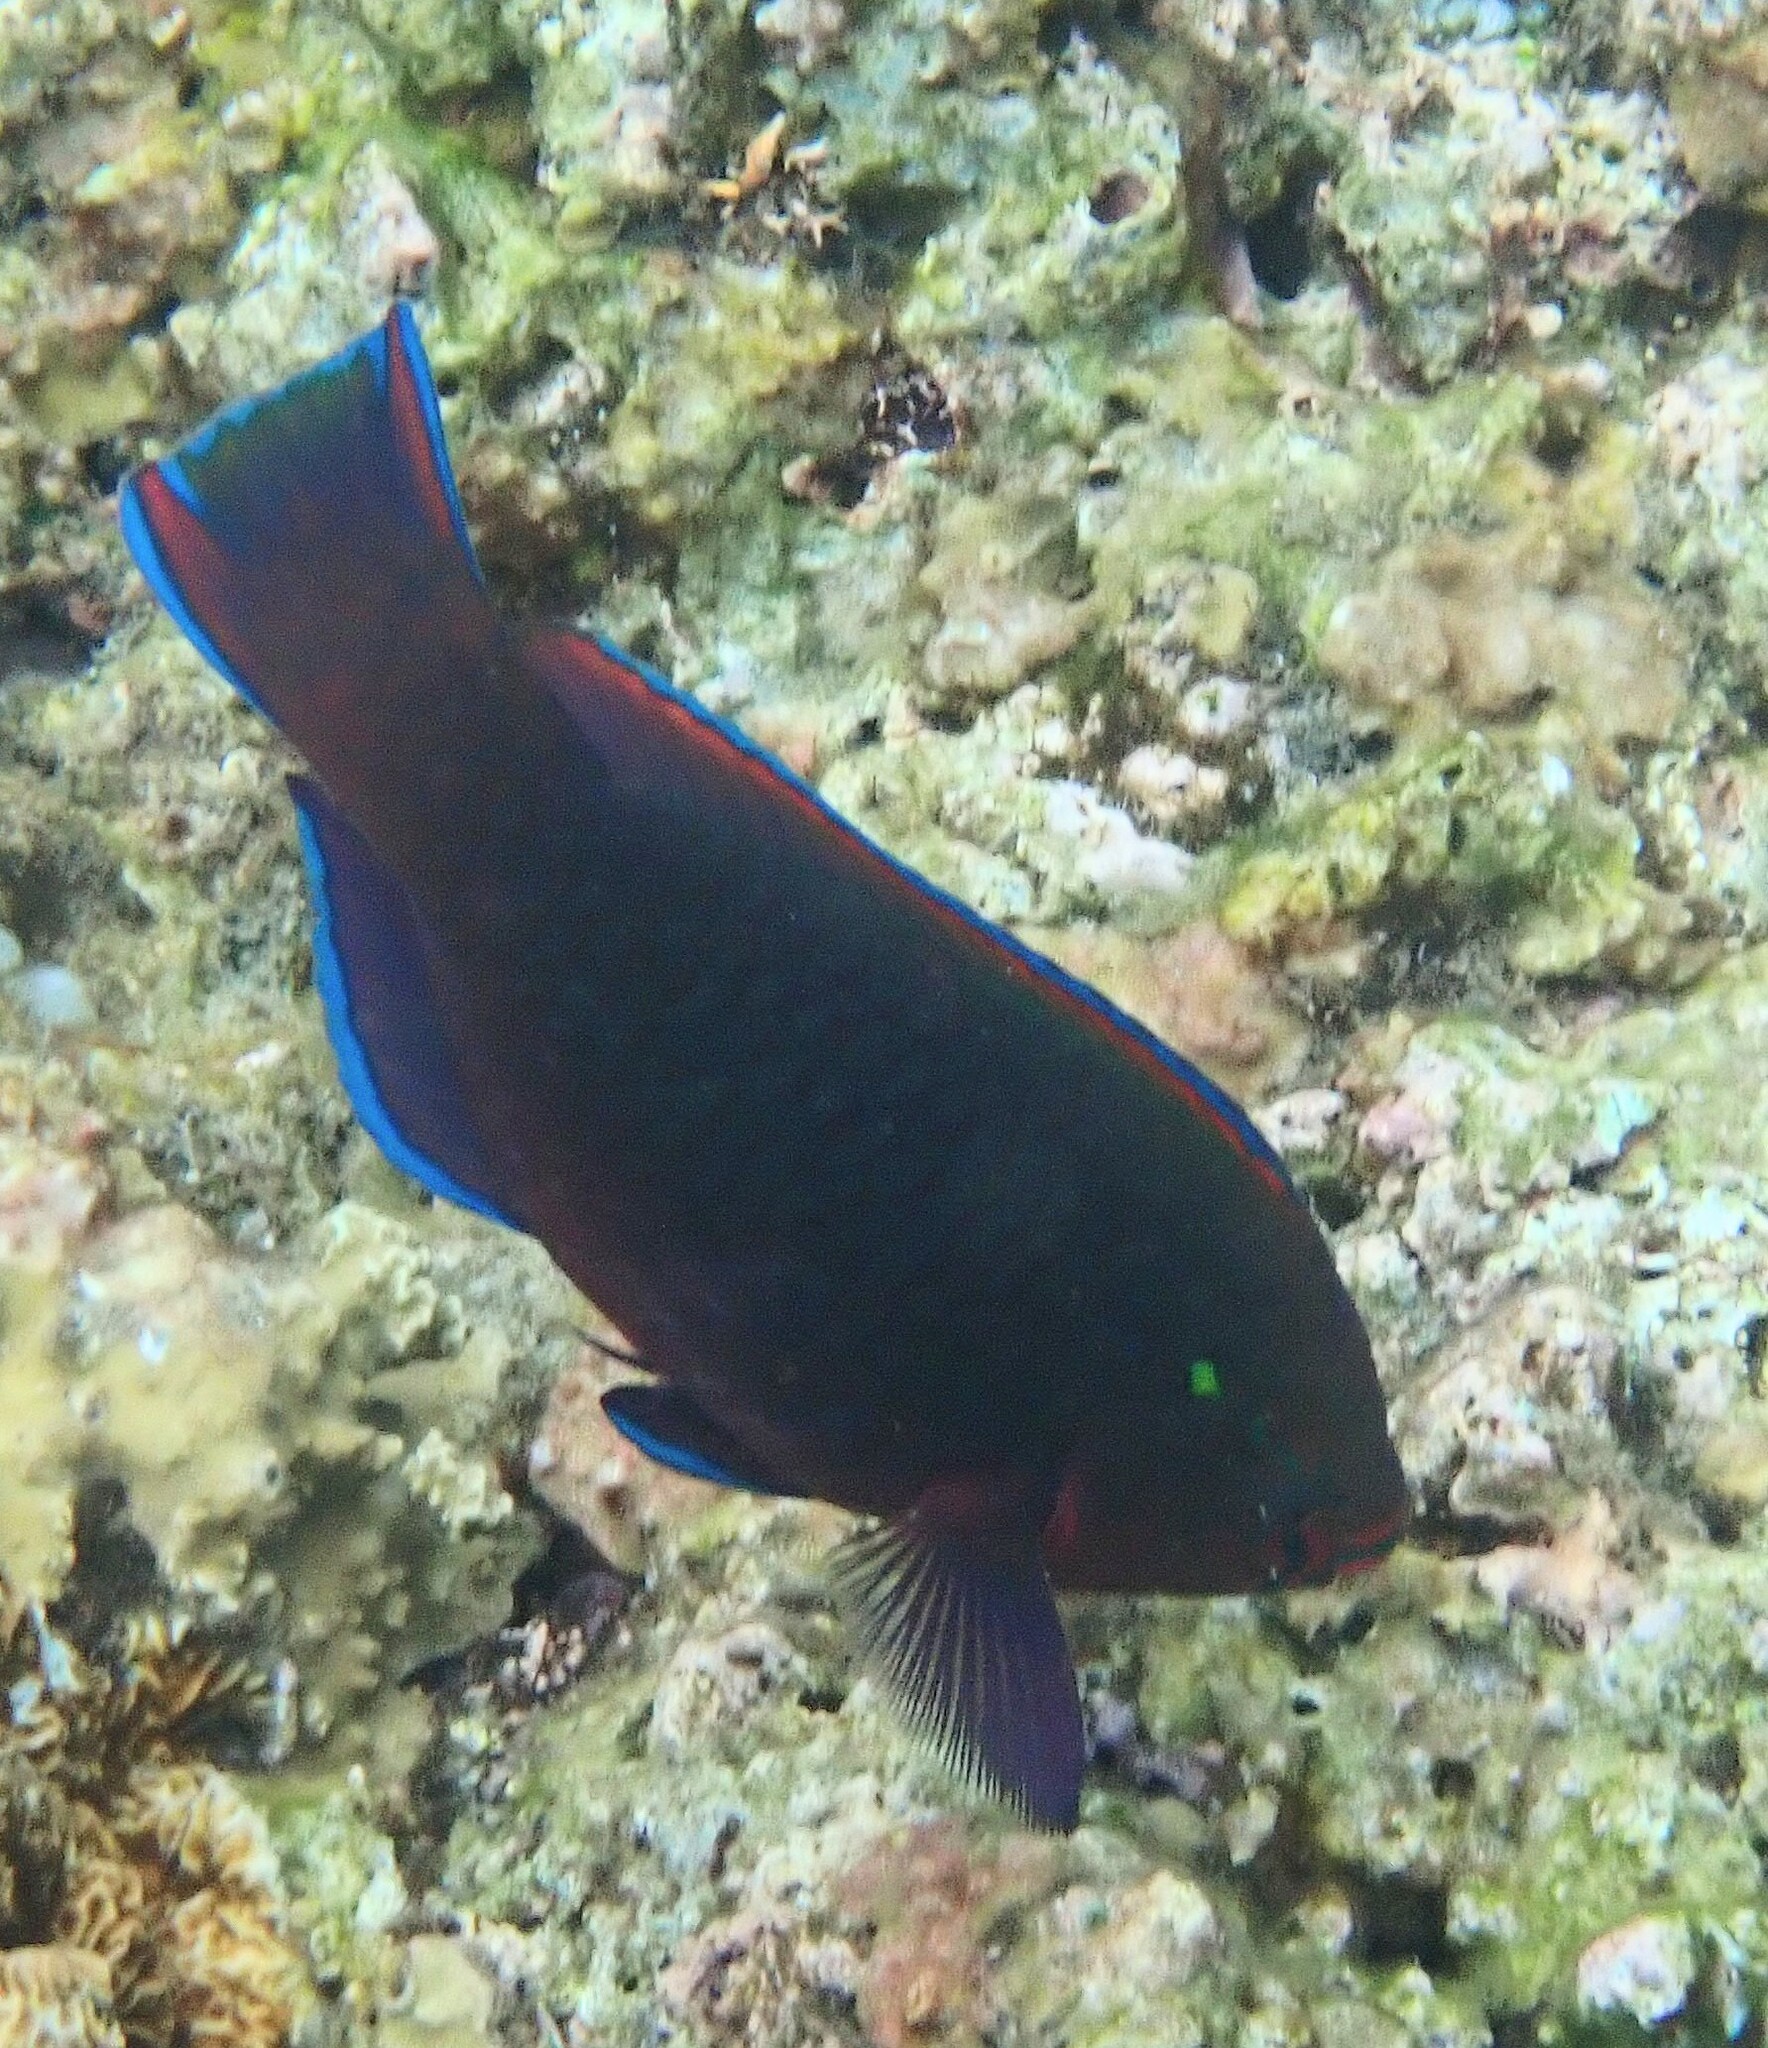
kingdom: Animalia
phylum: Chordata
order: Perciformes
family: Scaridae
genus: Scarus
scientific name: Scarus niger
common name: Dusky parrotfish
